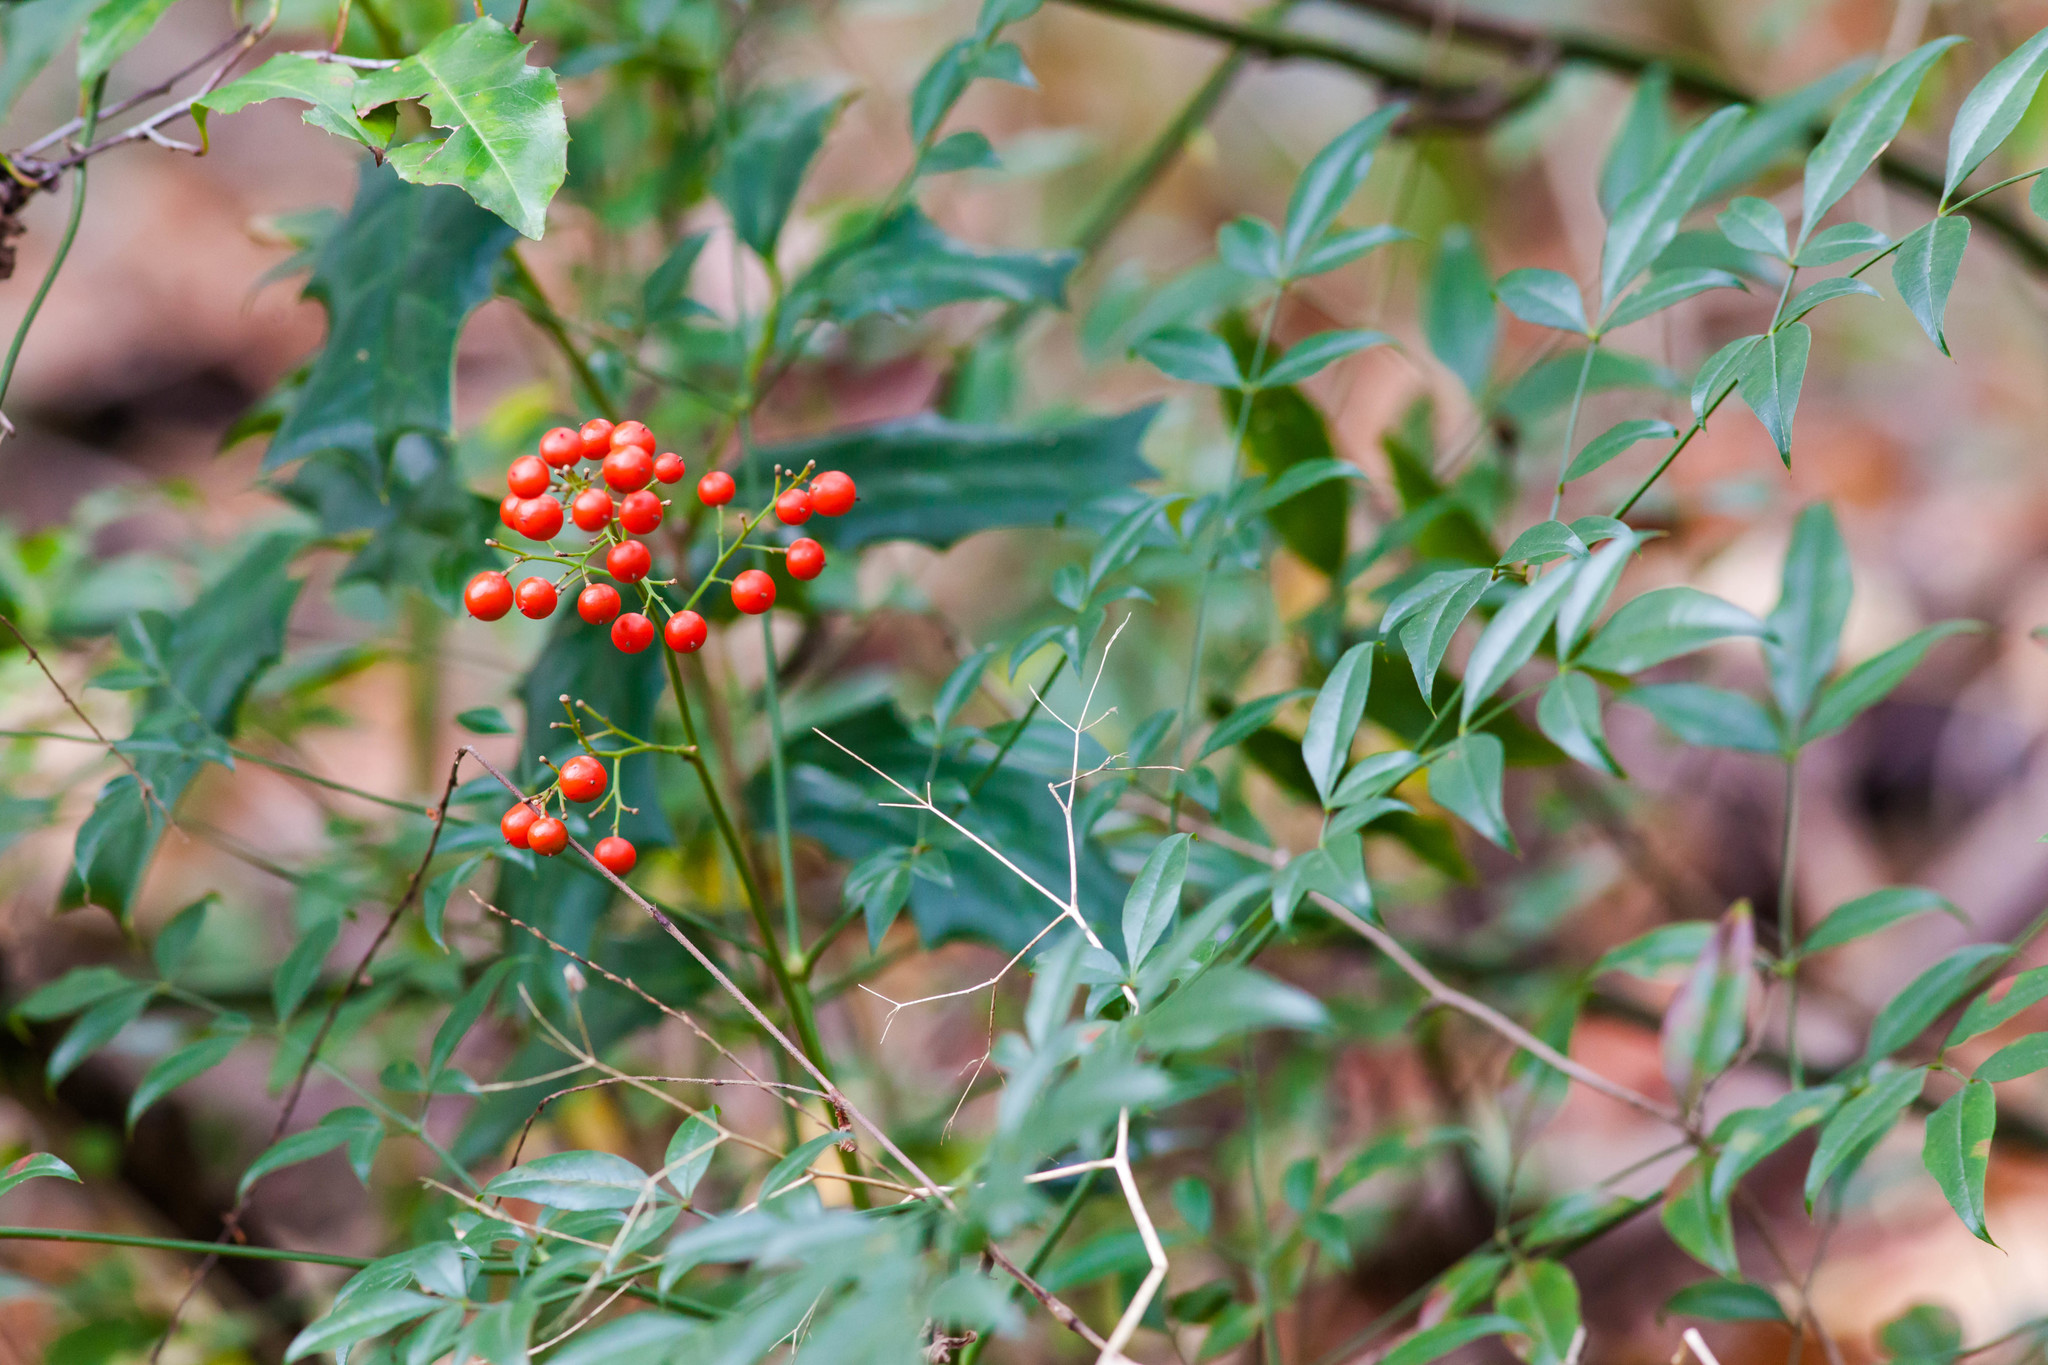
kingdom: Plantae
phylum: Tracheophyta
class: Magnoliopsida
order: Ranunculales
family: Berberidaceae
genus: Nandina
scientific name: Nandina domestica
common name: Sacred bamboo
